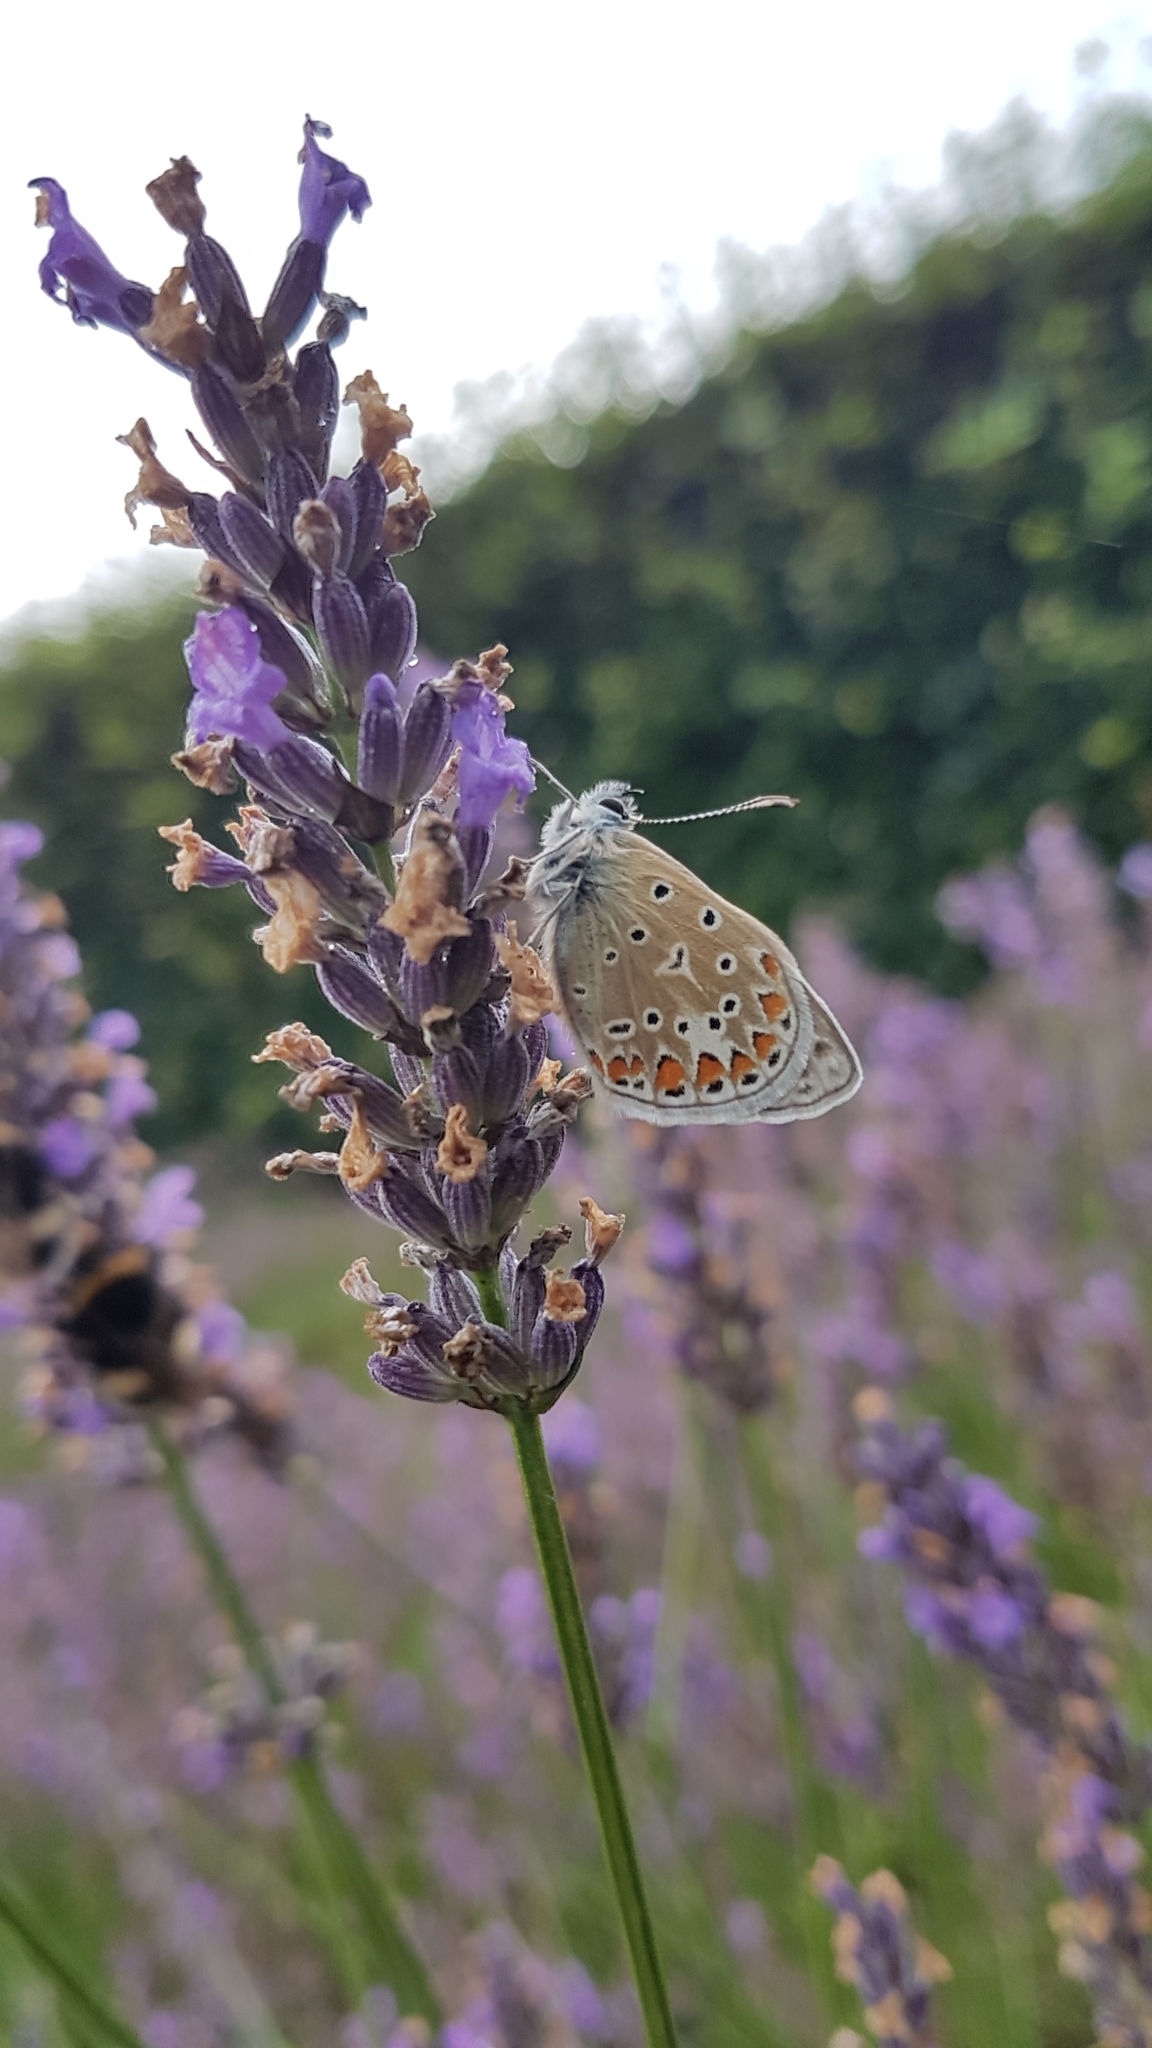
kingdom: Animalia
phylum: Arthropoda
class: Insecta
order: Lepidoptera
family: Lycaenidae
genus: Polyommatus
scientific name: Polyommatus icarus
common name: Common blue
